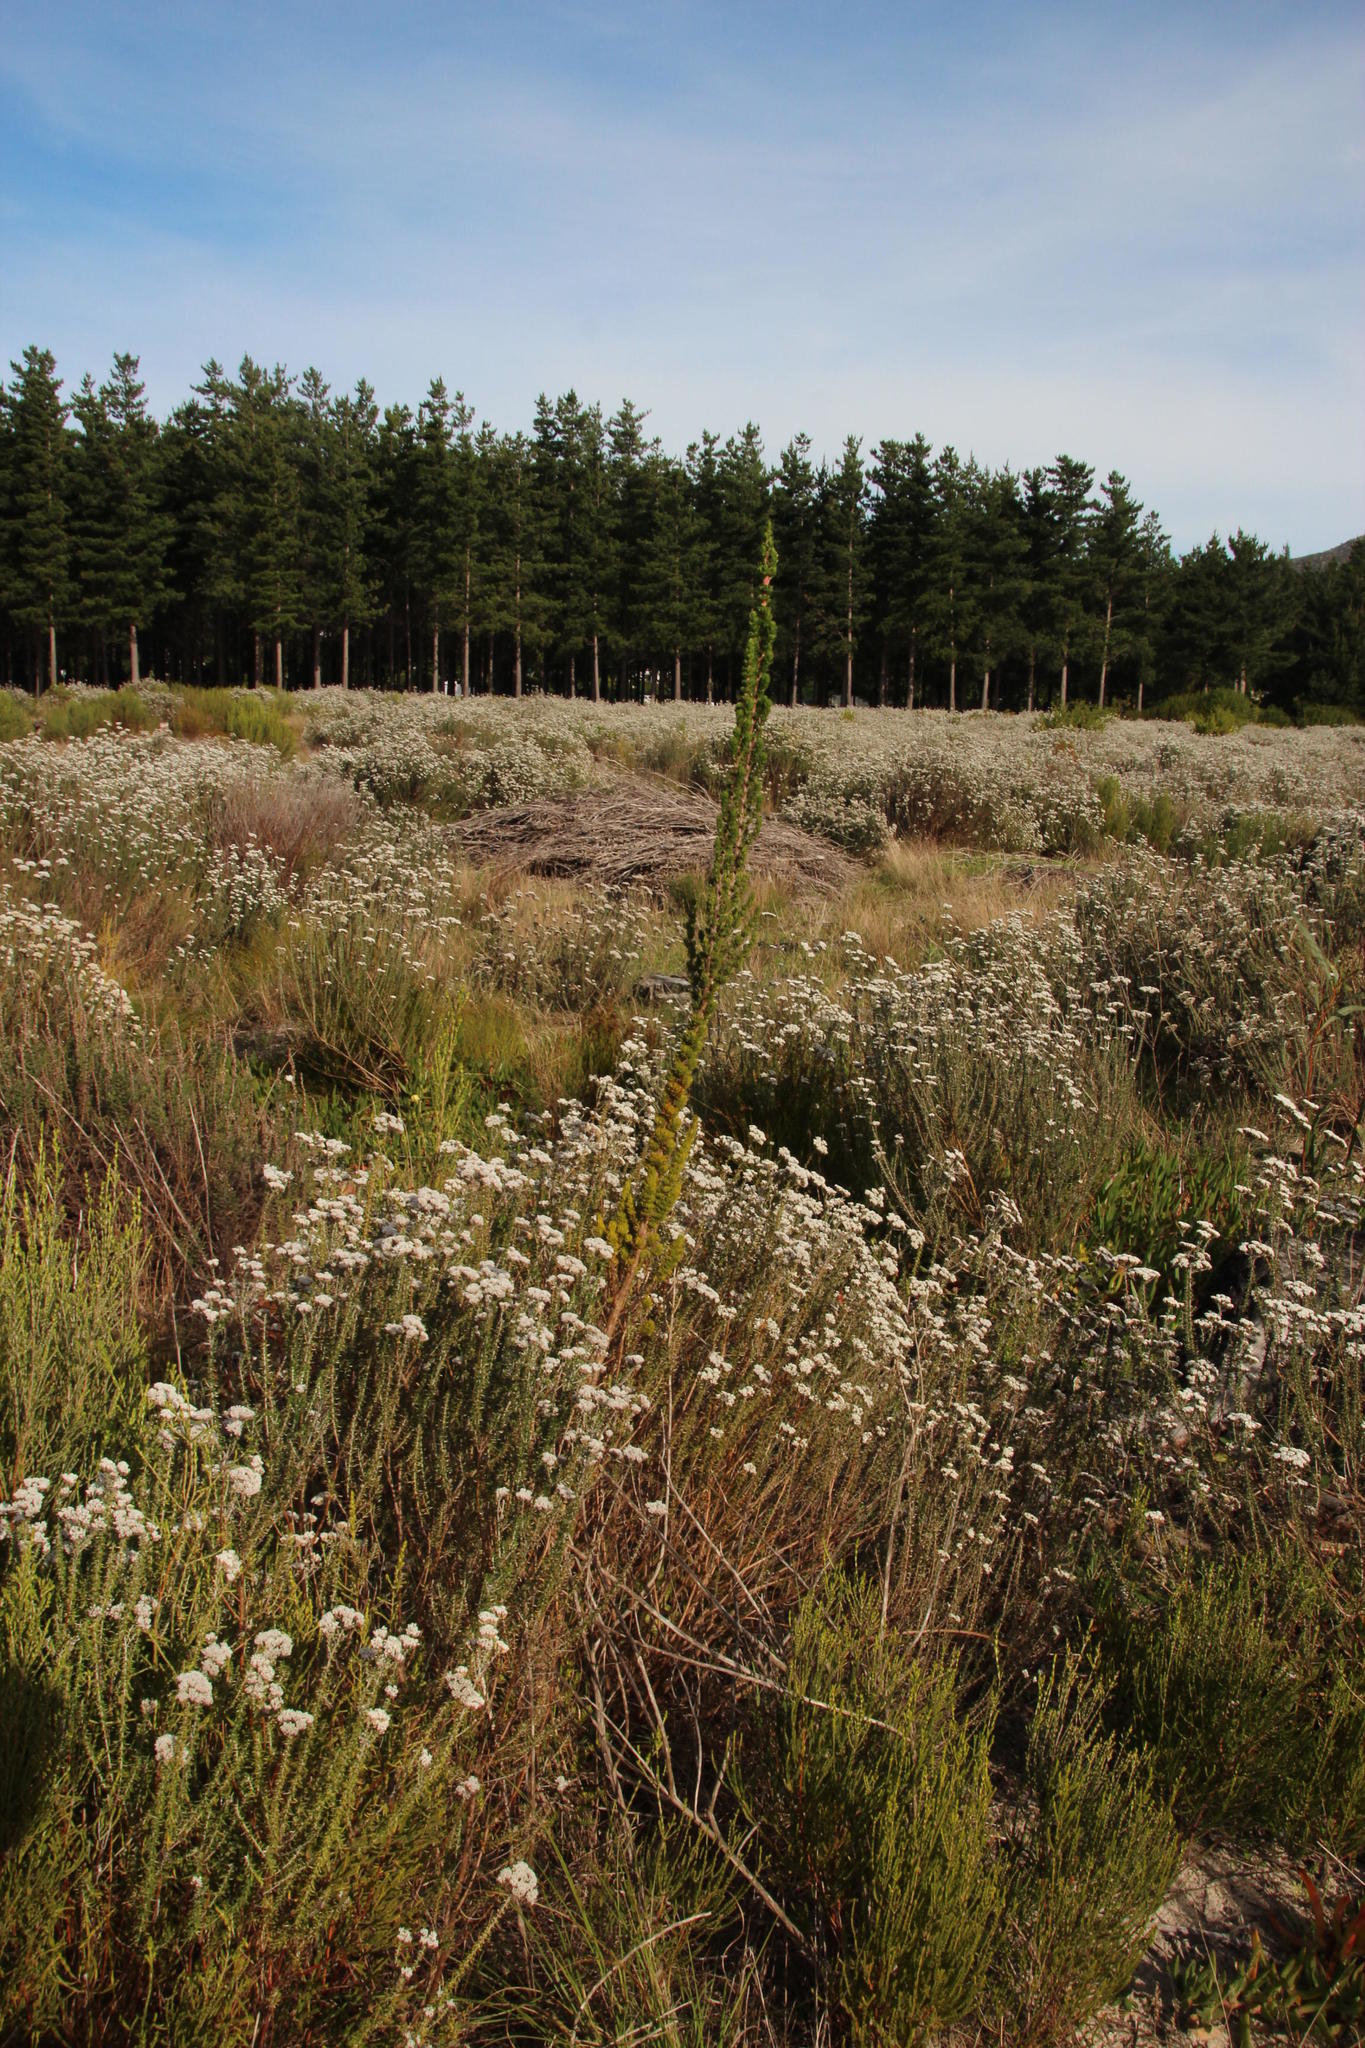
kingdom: Plantae
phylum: Tracheophyta
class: Magnoliopsida
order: Gentianales
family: Rubiaceae
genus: Anthospermum
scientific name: Anthospermum aethiopicum
